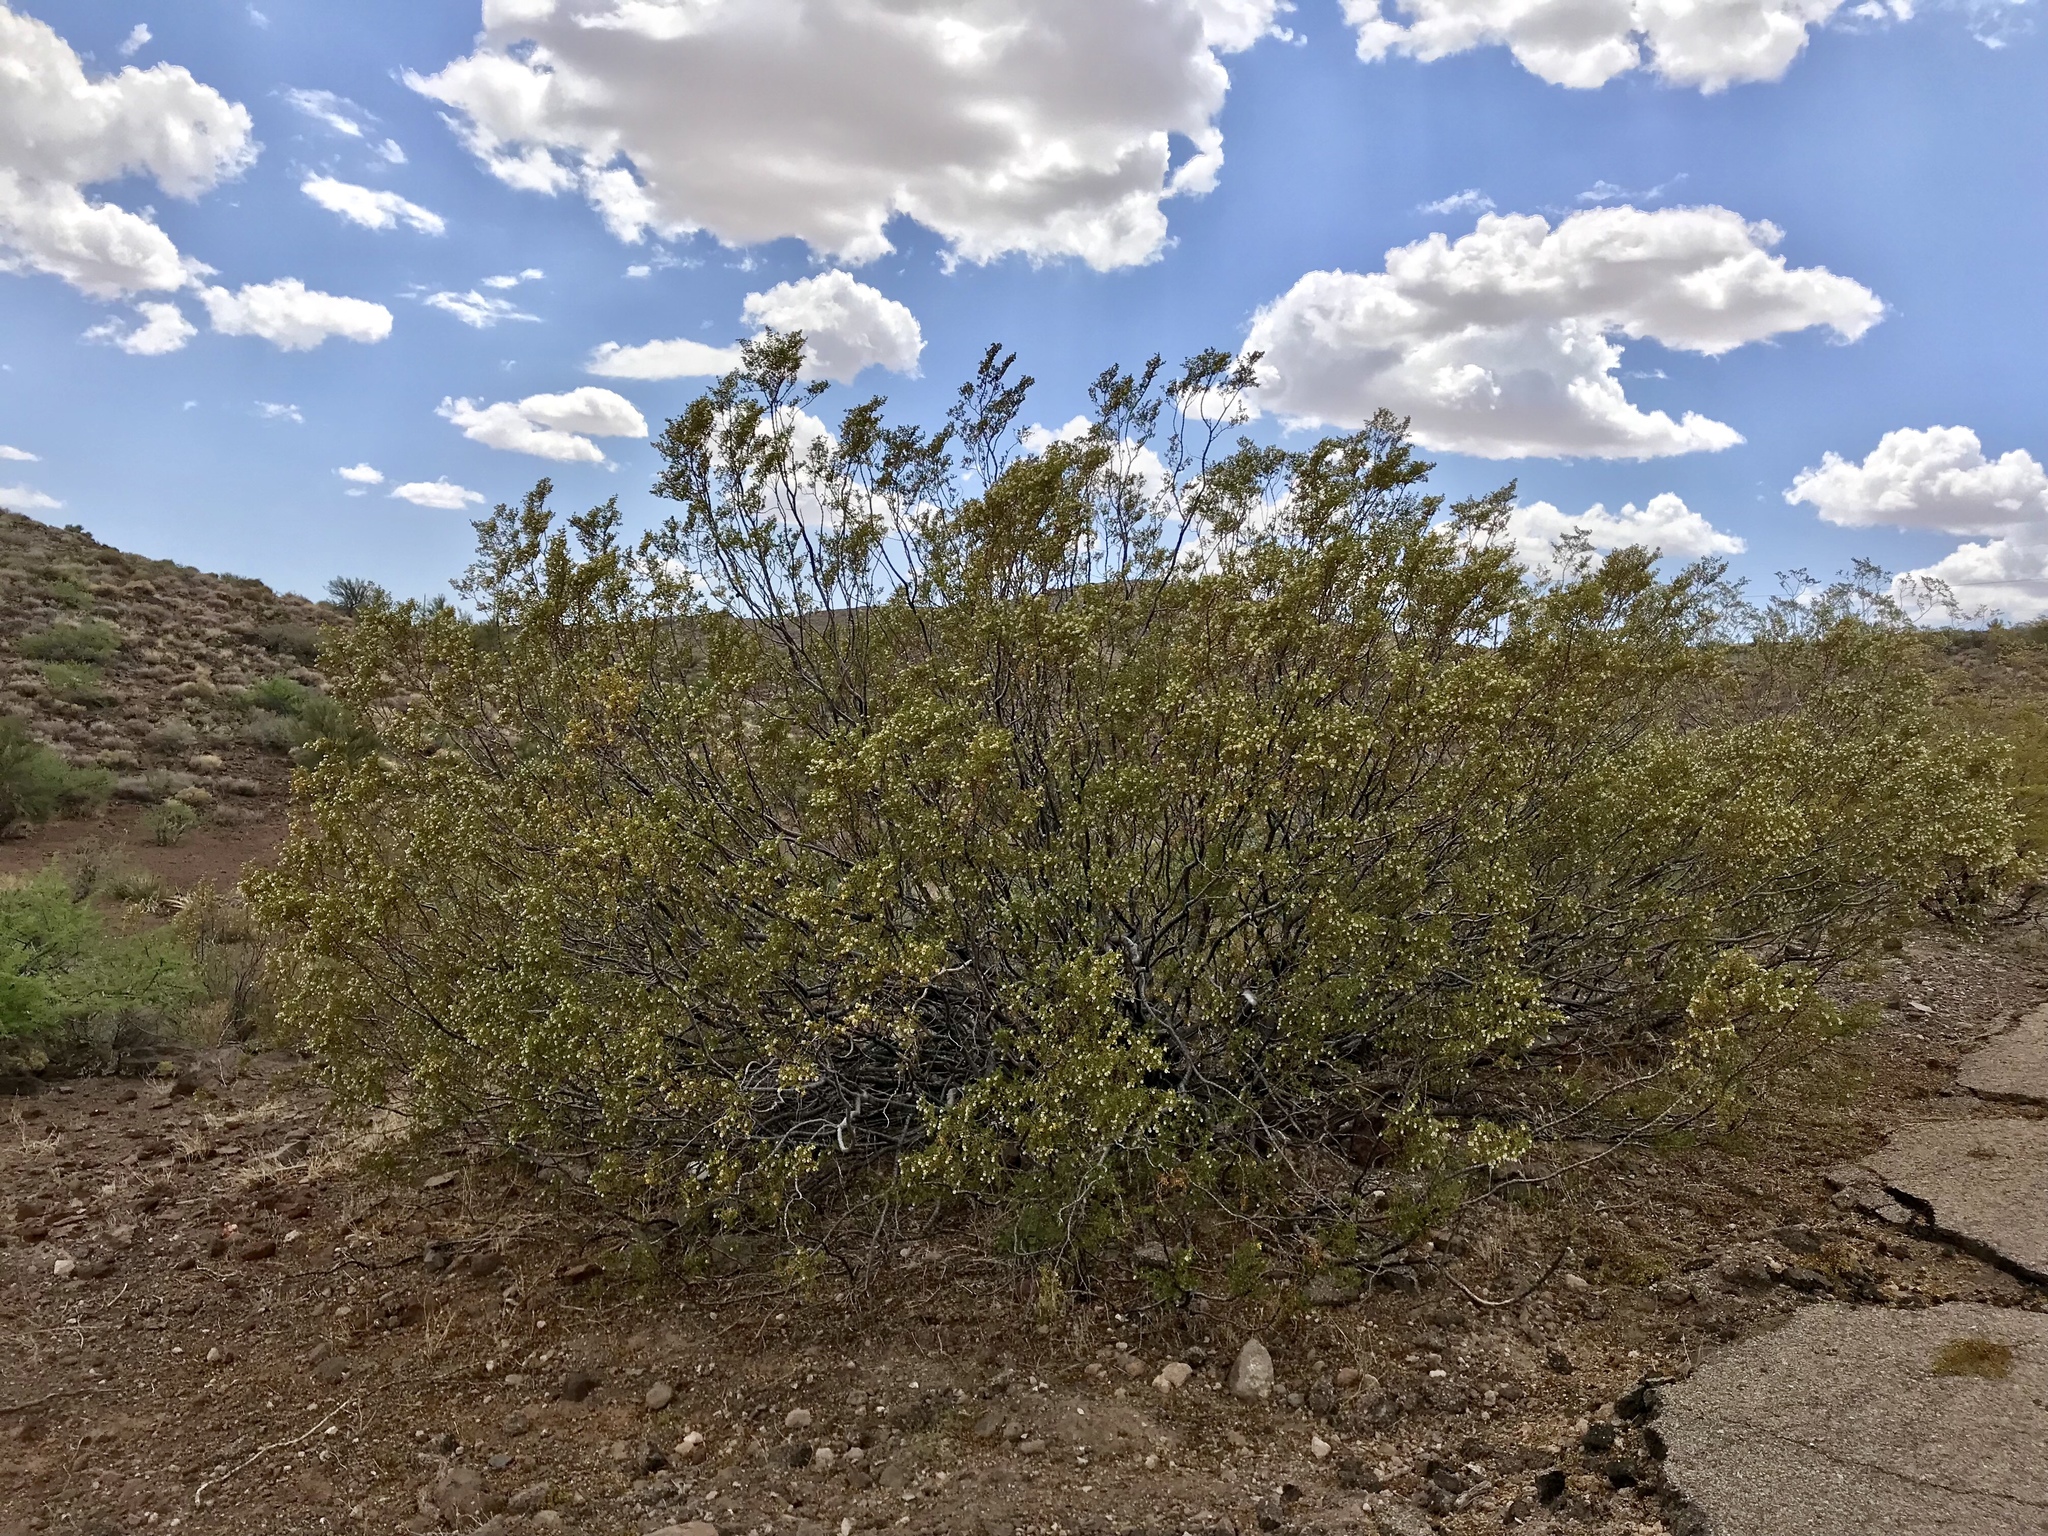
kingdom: Plantae
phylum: Tracheophyta
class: Magnoliopsida
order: Zygophyllales
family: Zygophyllaceae
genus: Larrea
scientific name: Larrea tridentata
